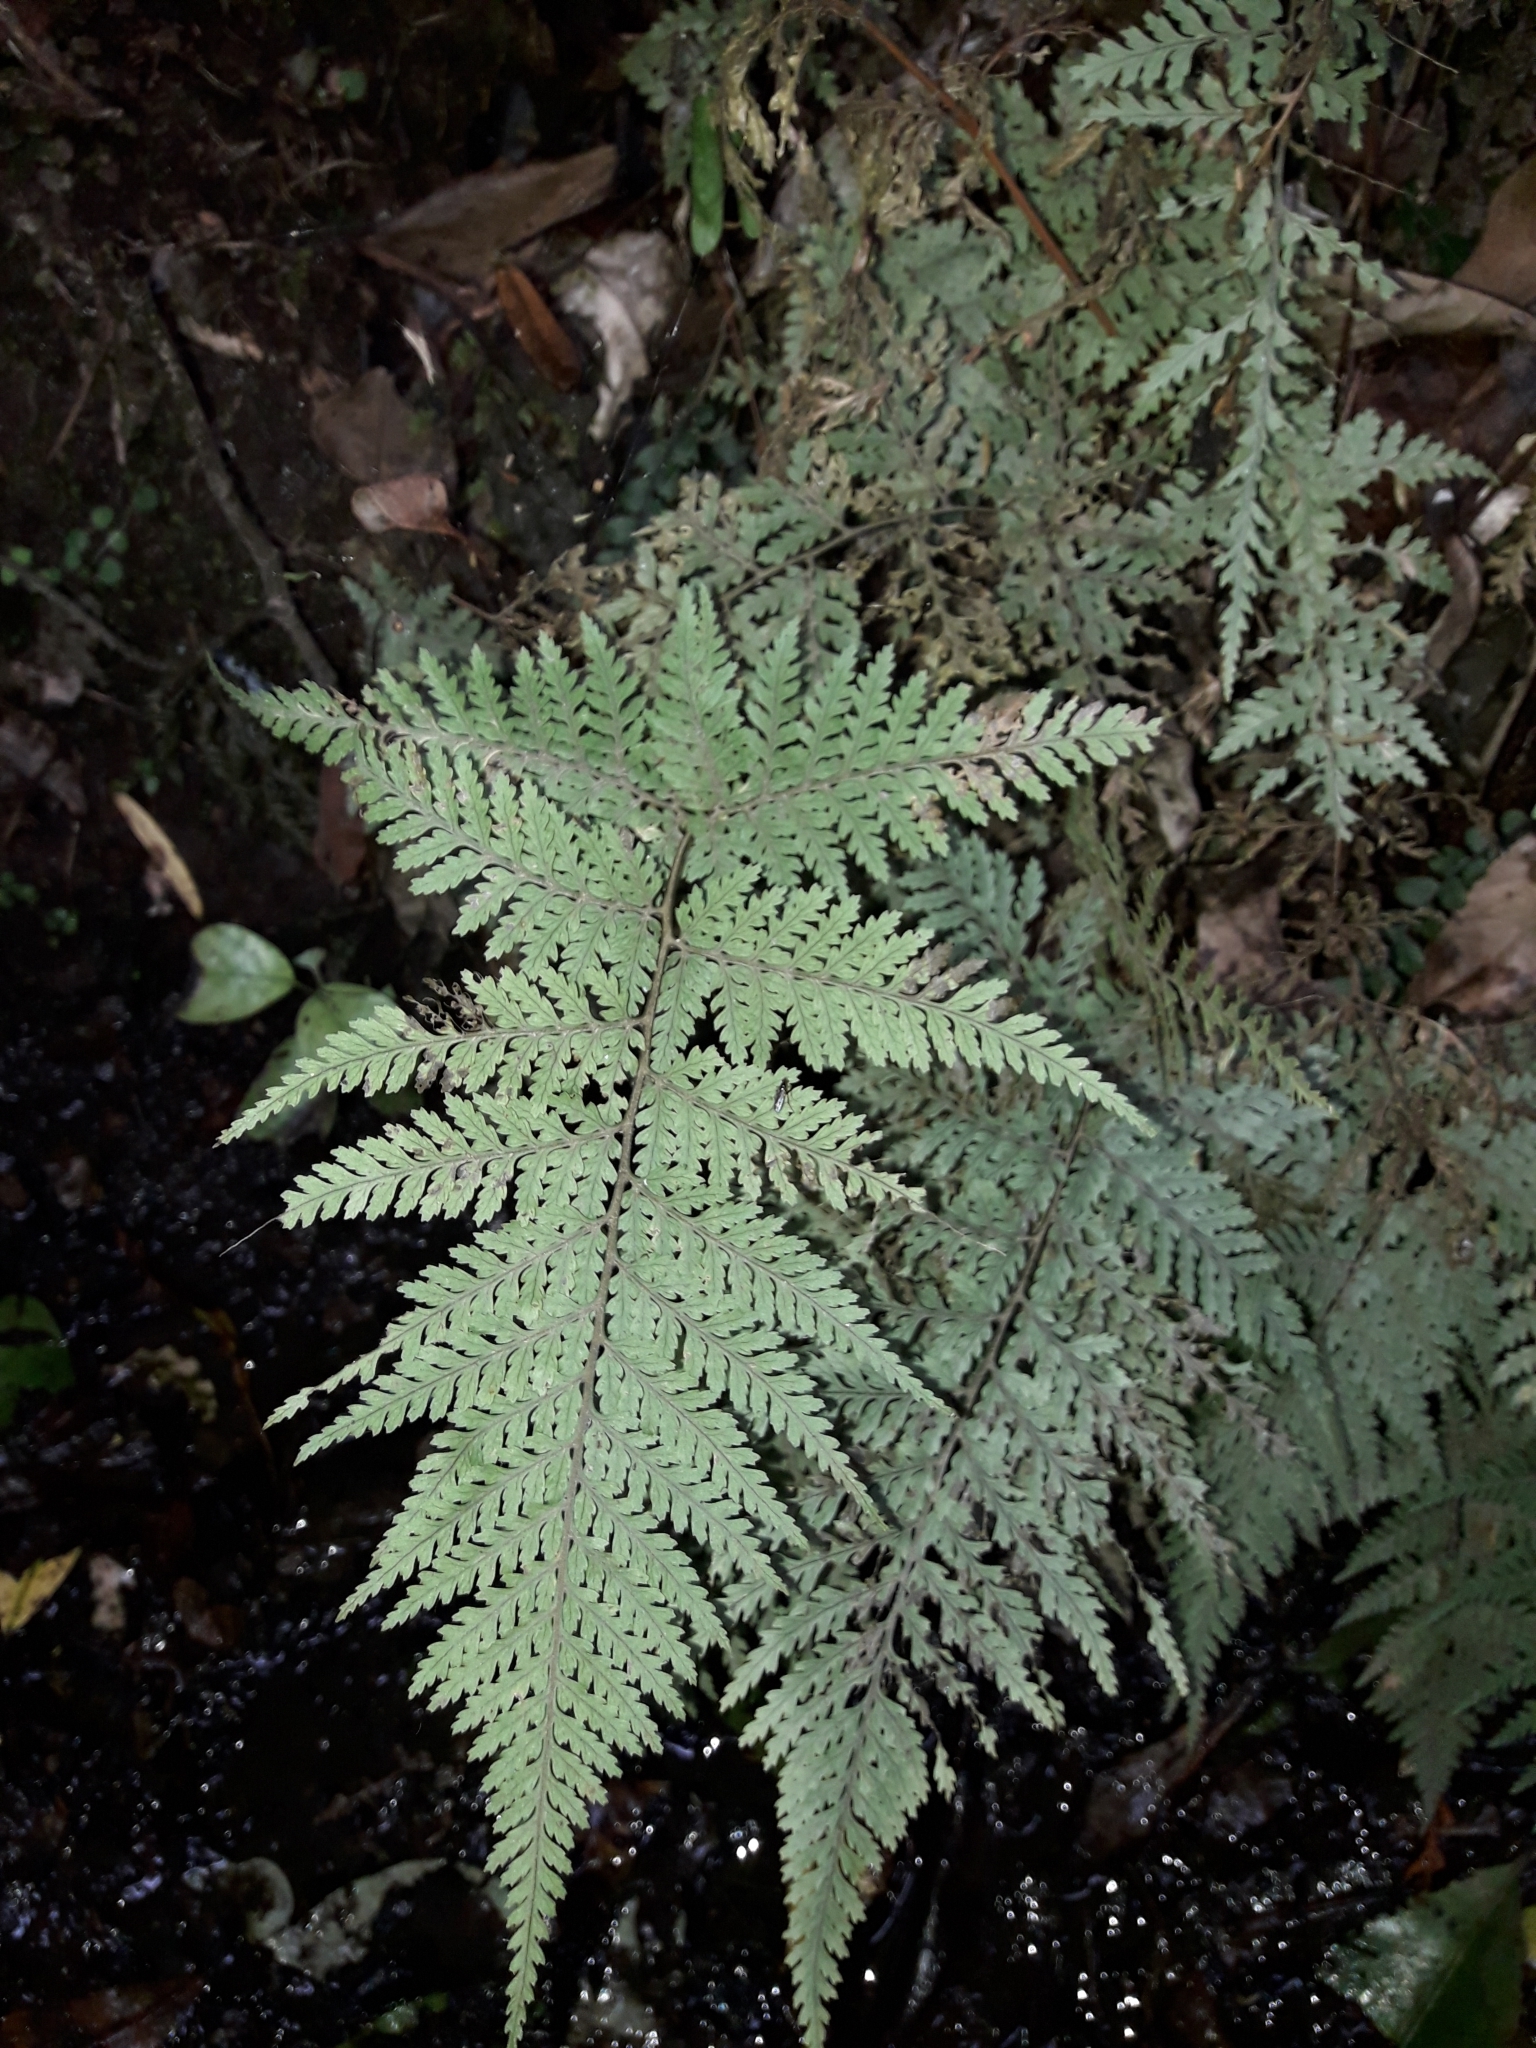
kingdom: Plantae
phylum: Tracheophyta
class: Polypodiopsida
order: Polypodiales
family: Dryopteridaceae
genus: Parapolystichum
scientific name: Parapolystichum glabellum
